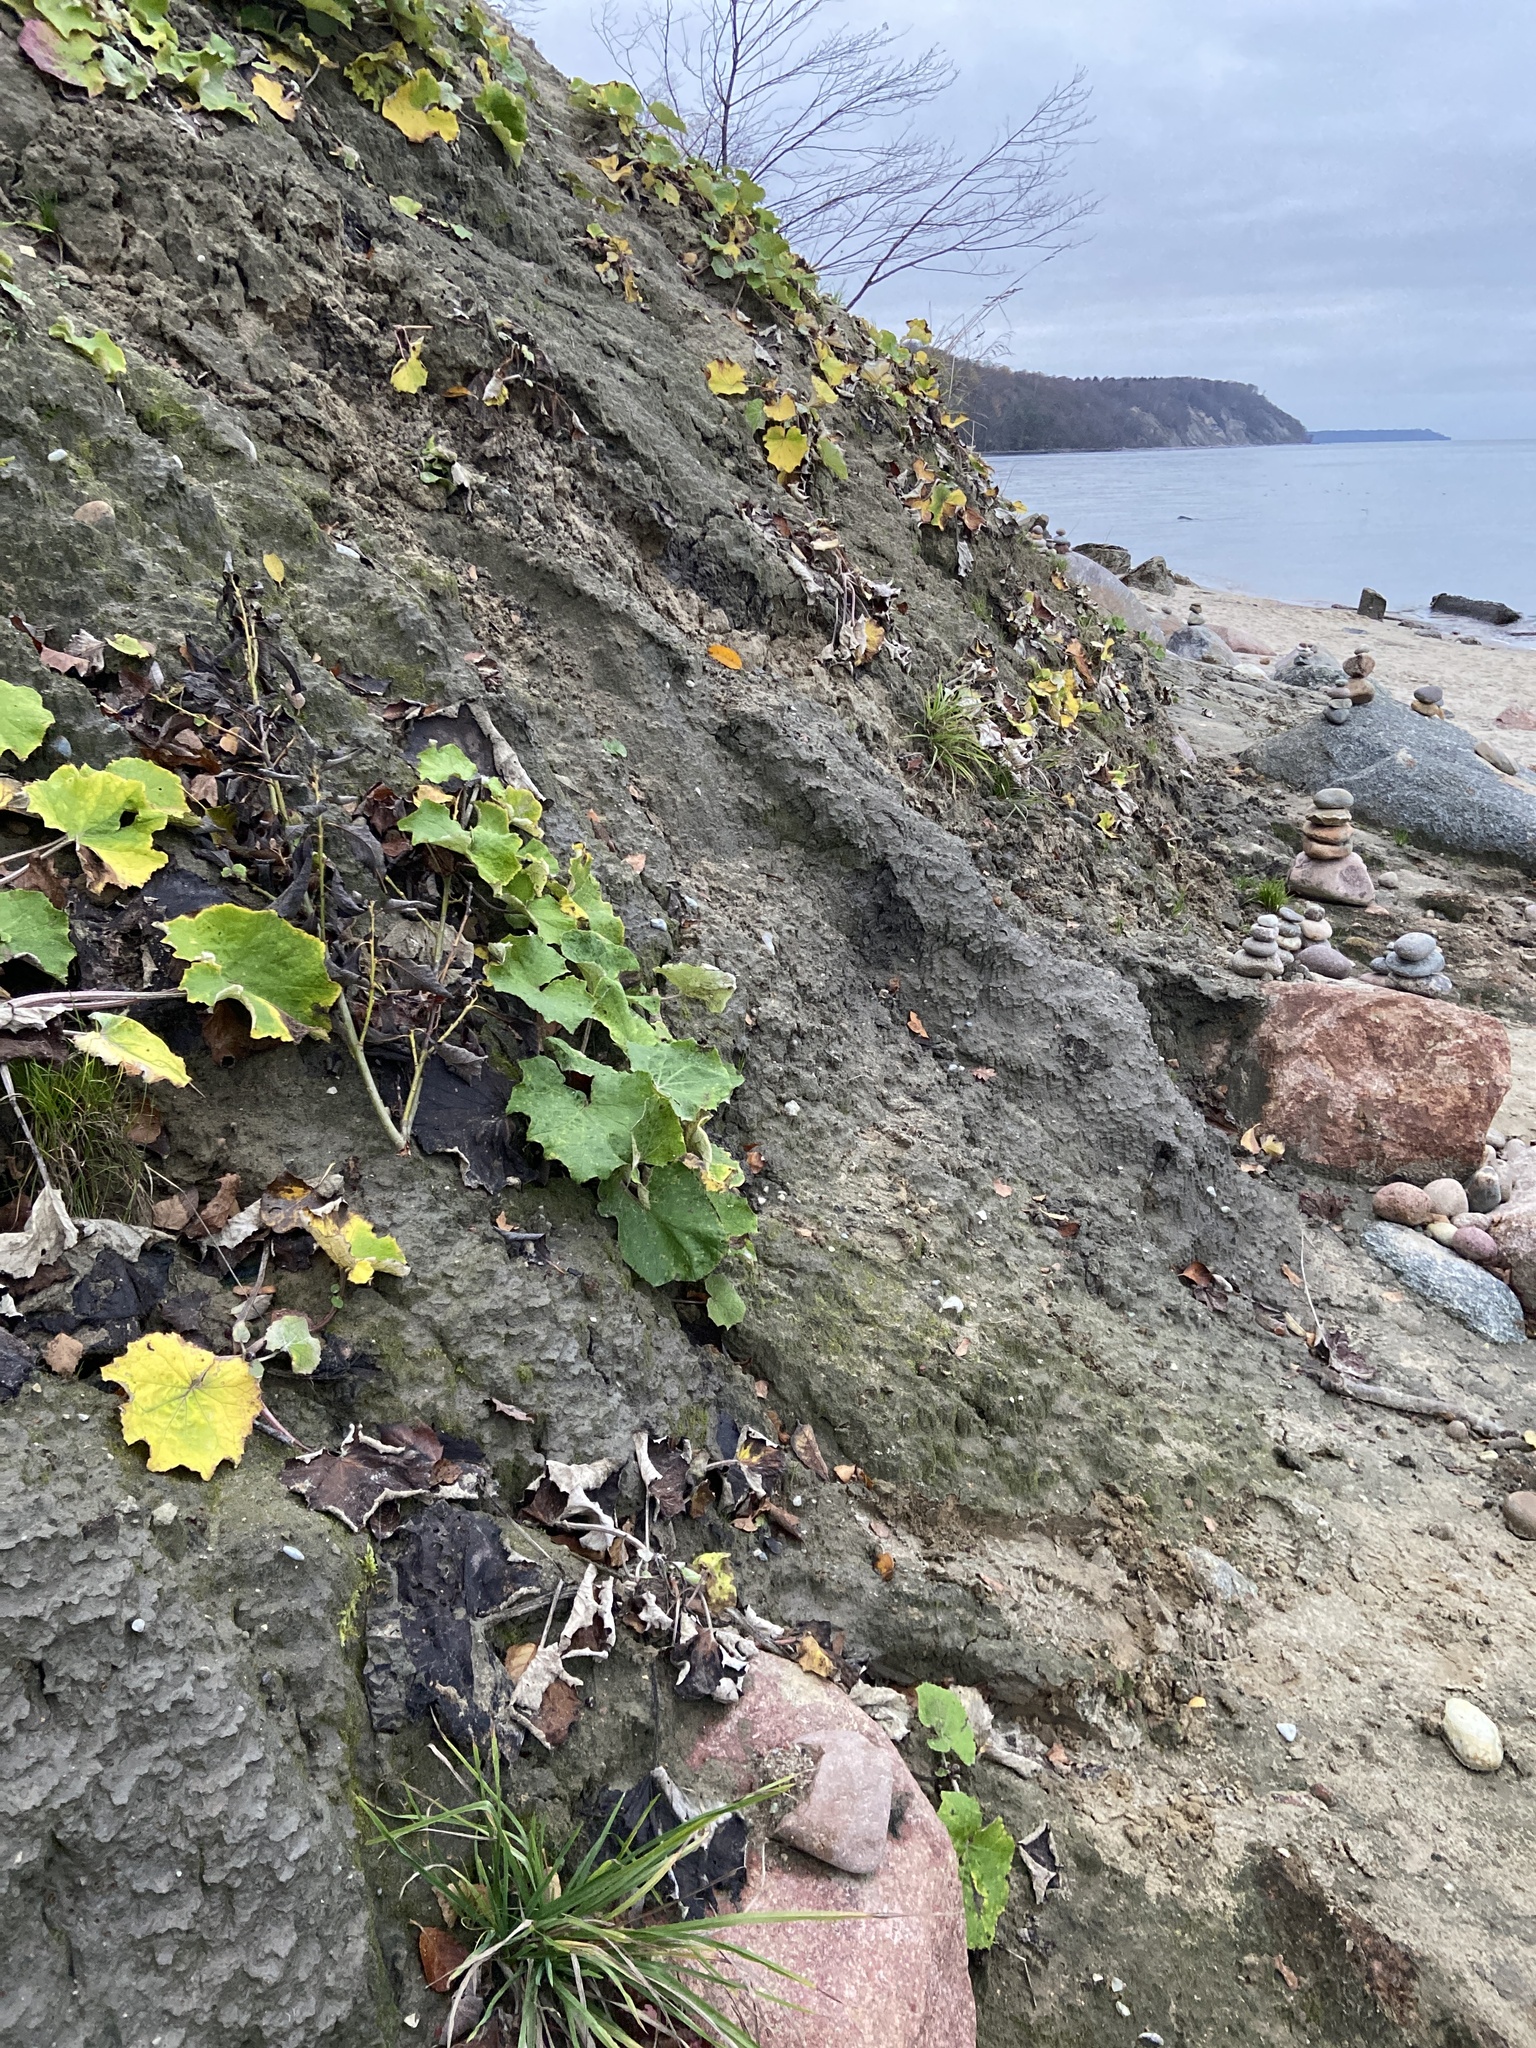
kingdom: Plantae
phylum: Tracheophyta
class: Magnoliopsida
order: Asterales
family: Asteraceae
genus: Tussilago
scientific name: Tussilago farfara
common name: Coltsfoot
